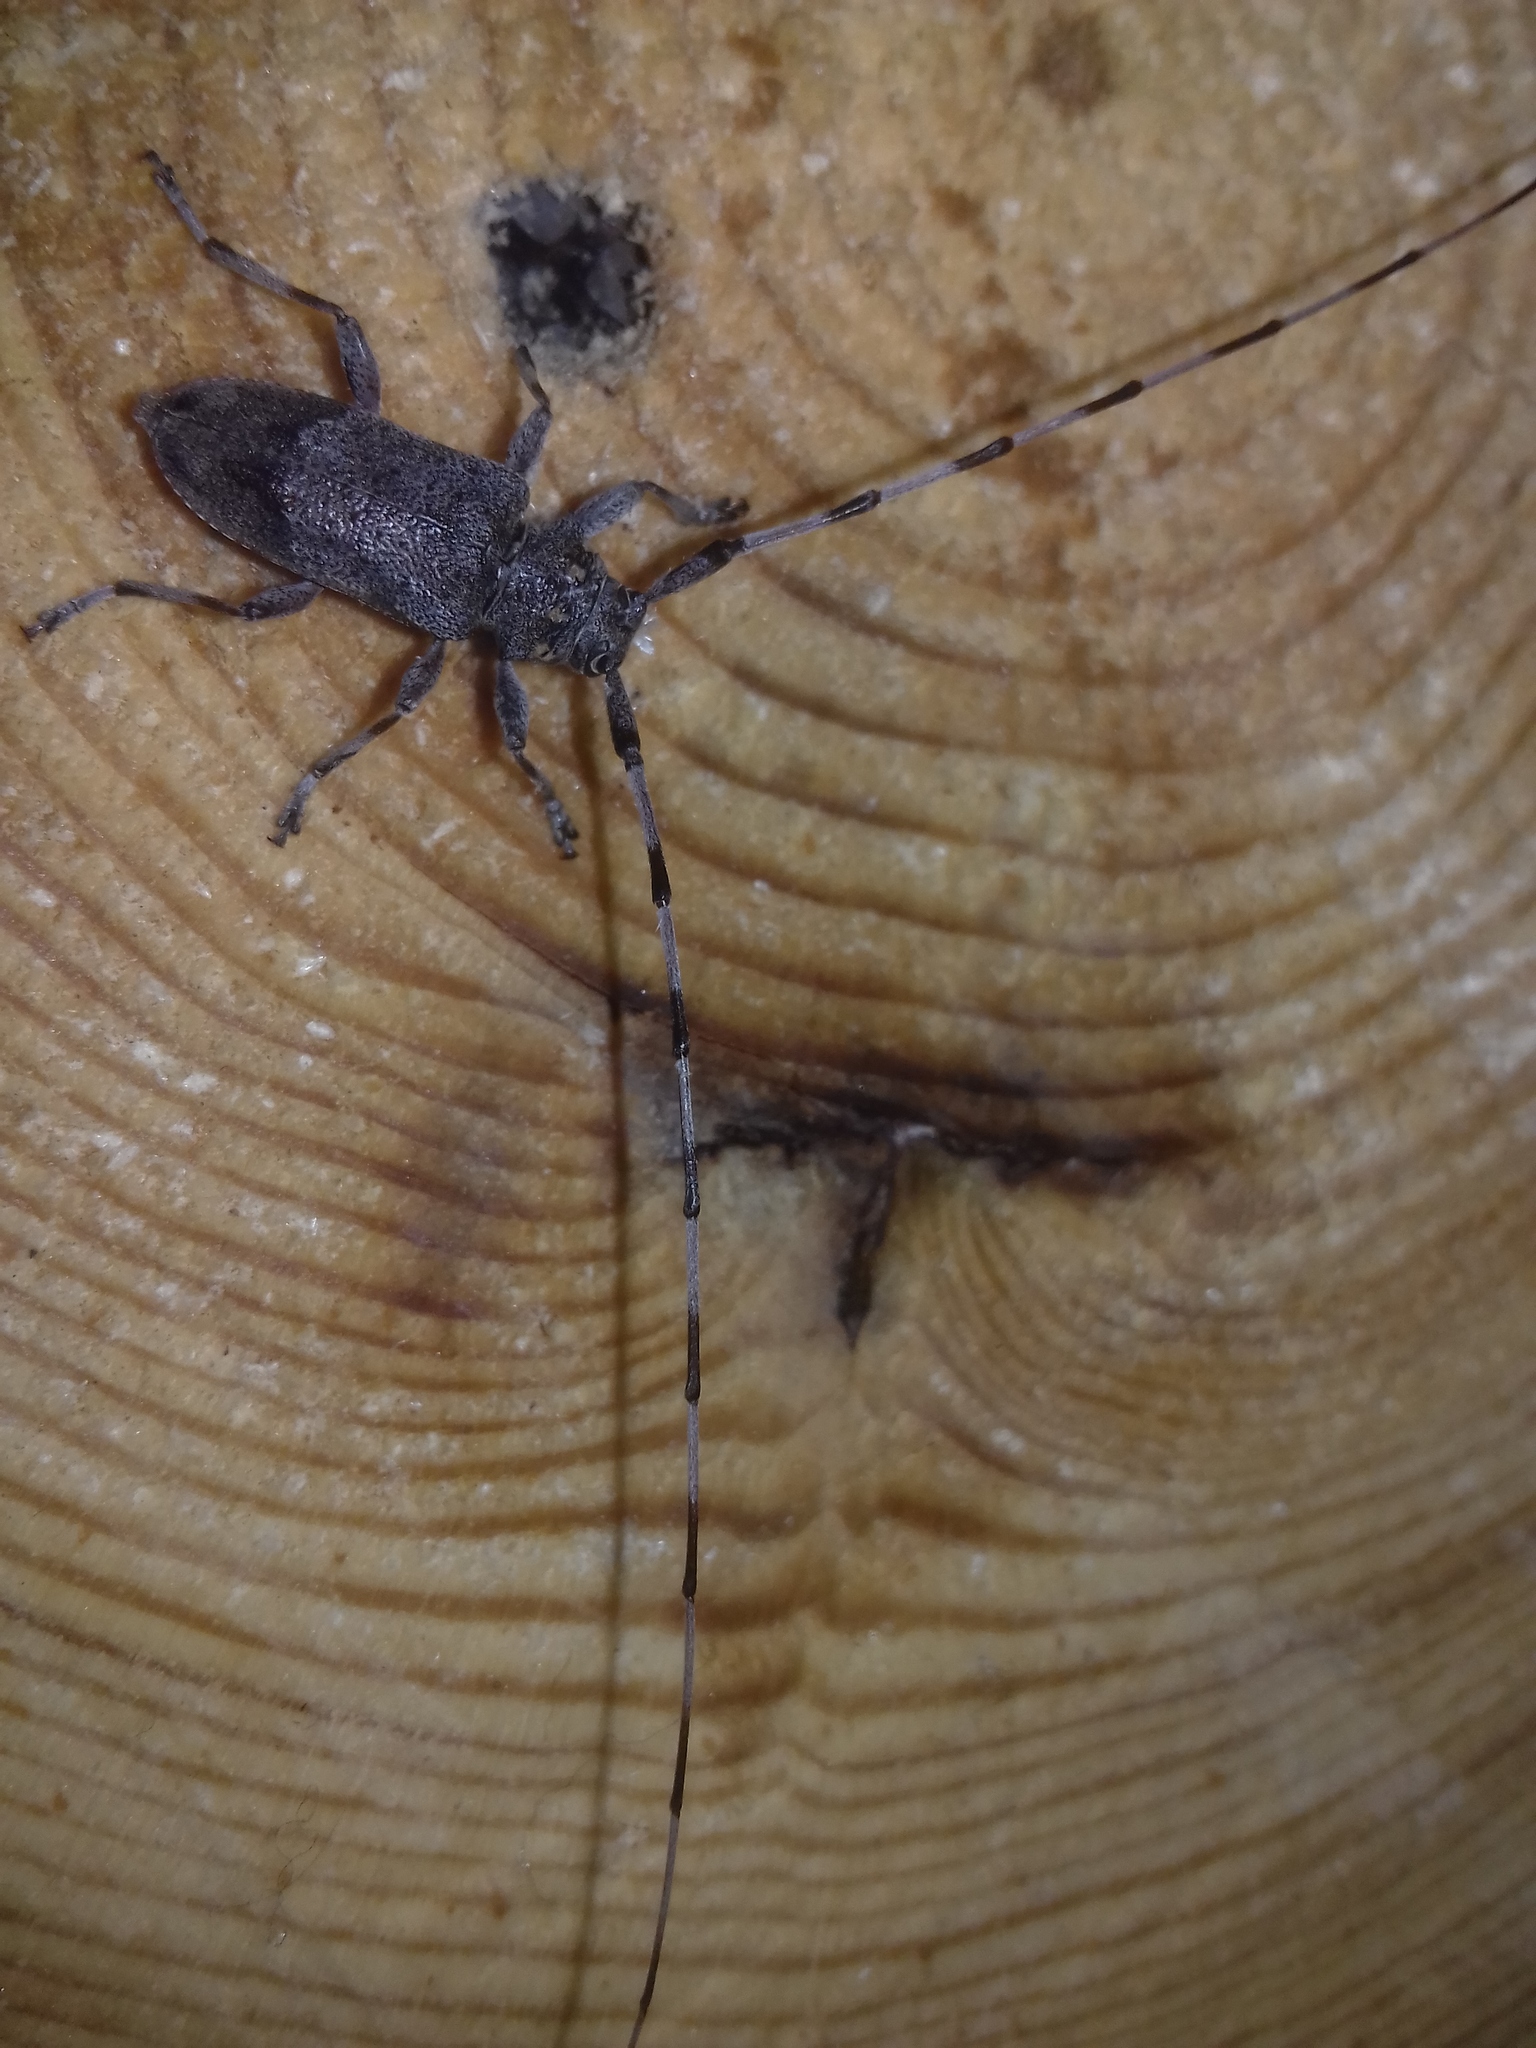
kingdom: Animalia
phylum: Arthropoda
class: Insecta
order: Coleoptera
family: Cerambycidae
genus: Acanthocinus
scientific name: Acanthocinus aedilis
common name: Timberman beetle
